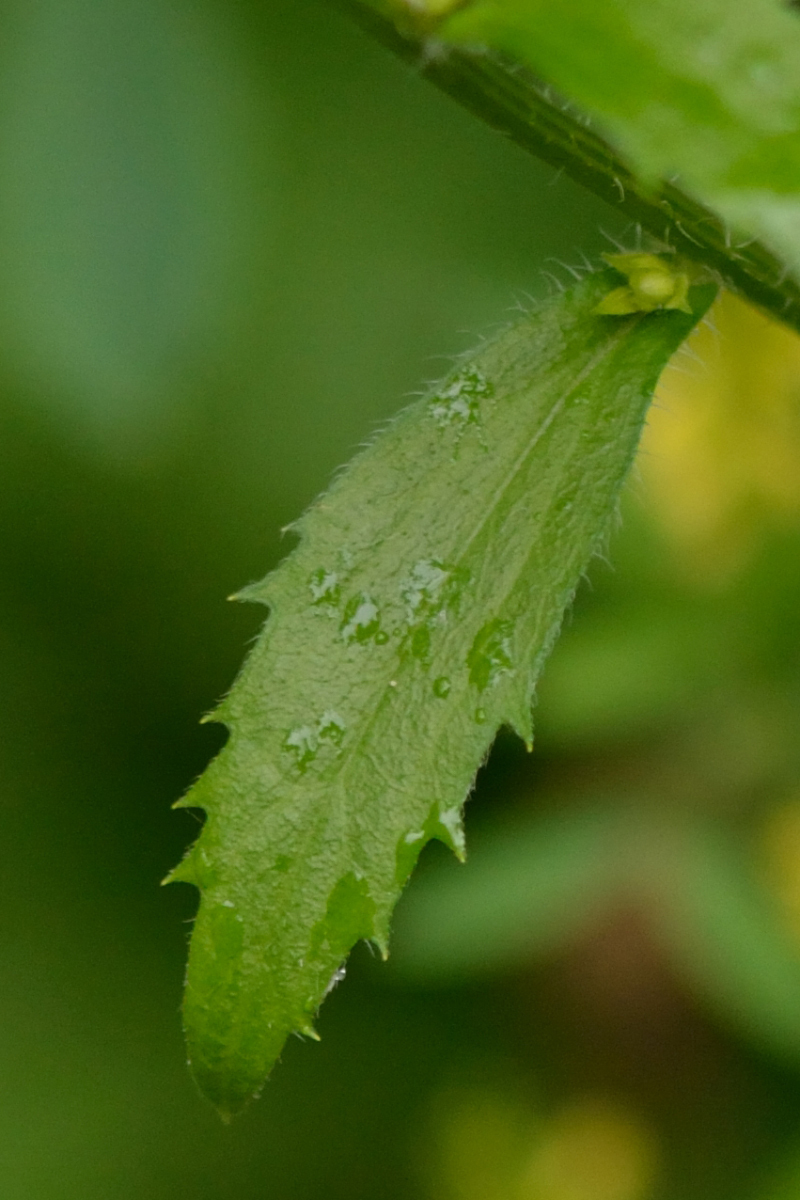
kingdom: Plantae
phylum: Tracheophyta
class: Magnoliopsida
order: Asterales
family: Asteraceae
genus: Erigeron
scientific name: Erigeron annuus
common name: Tall fleabane
